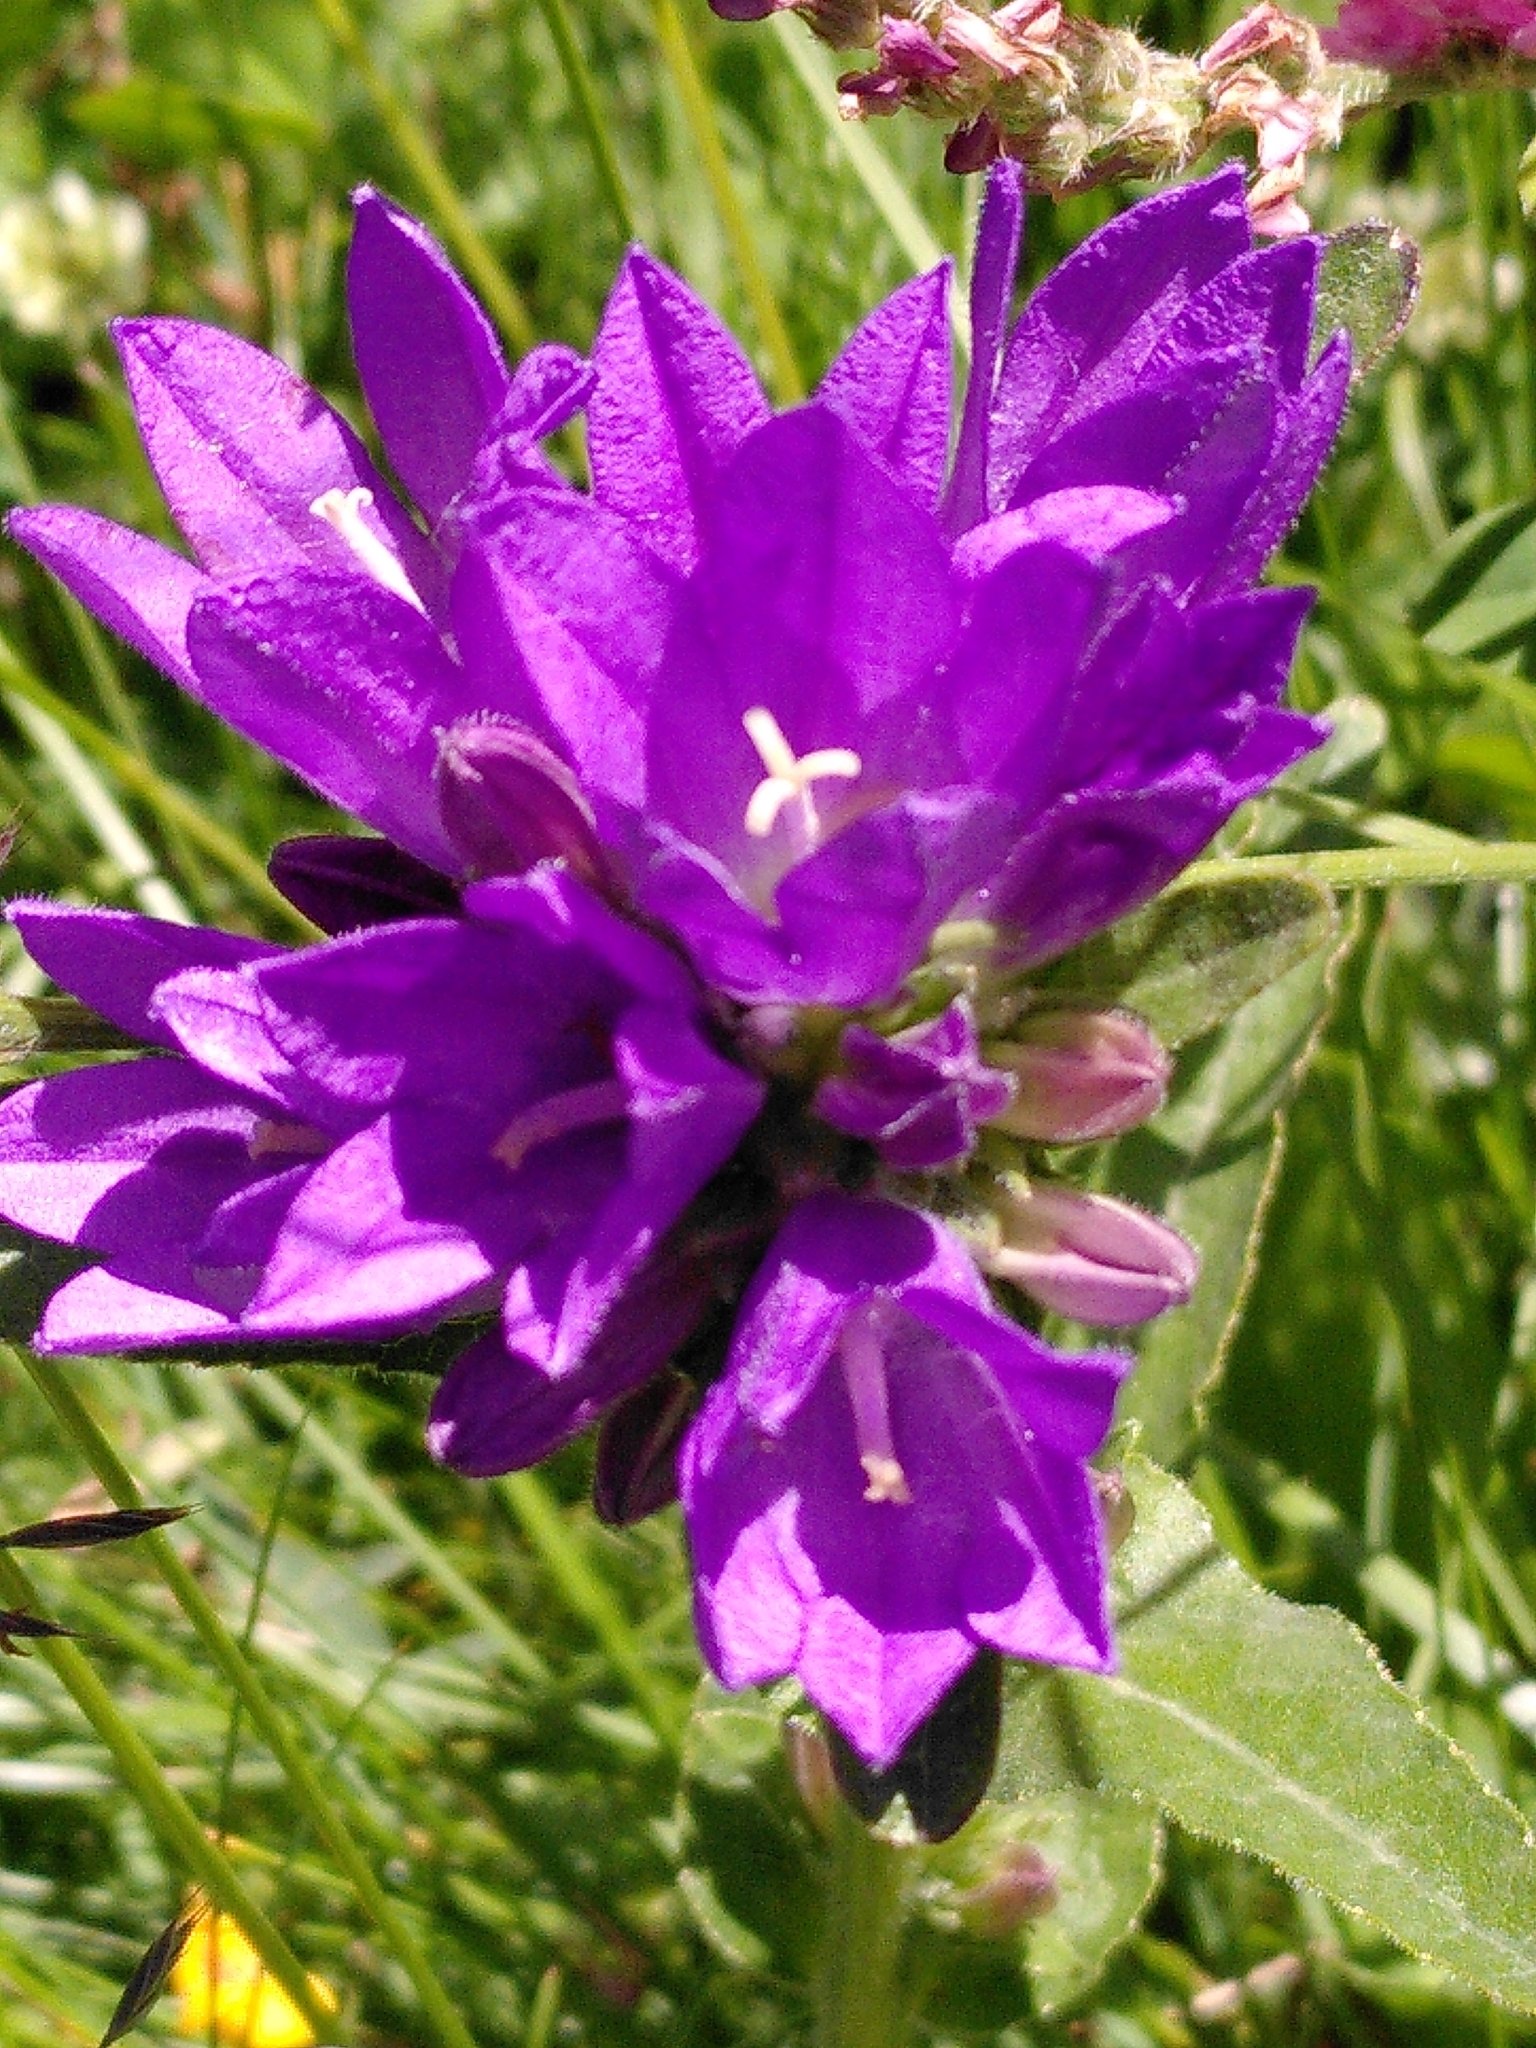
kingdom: Plantae
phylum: Tracheophyta
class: Magnoliopsida
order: Asterales
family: Campanulaceae
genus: Campanula
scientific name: Campanula glomerata
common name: Clustered bellflower
